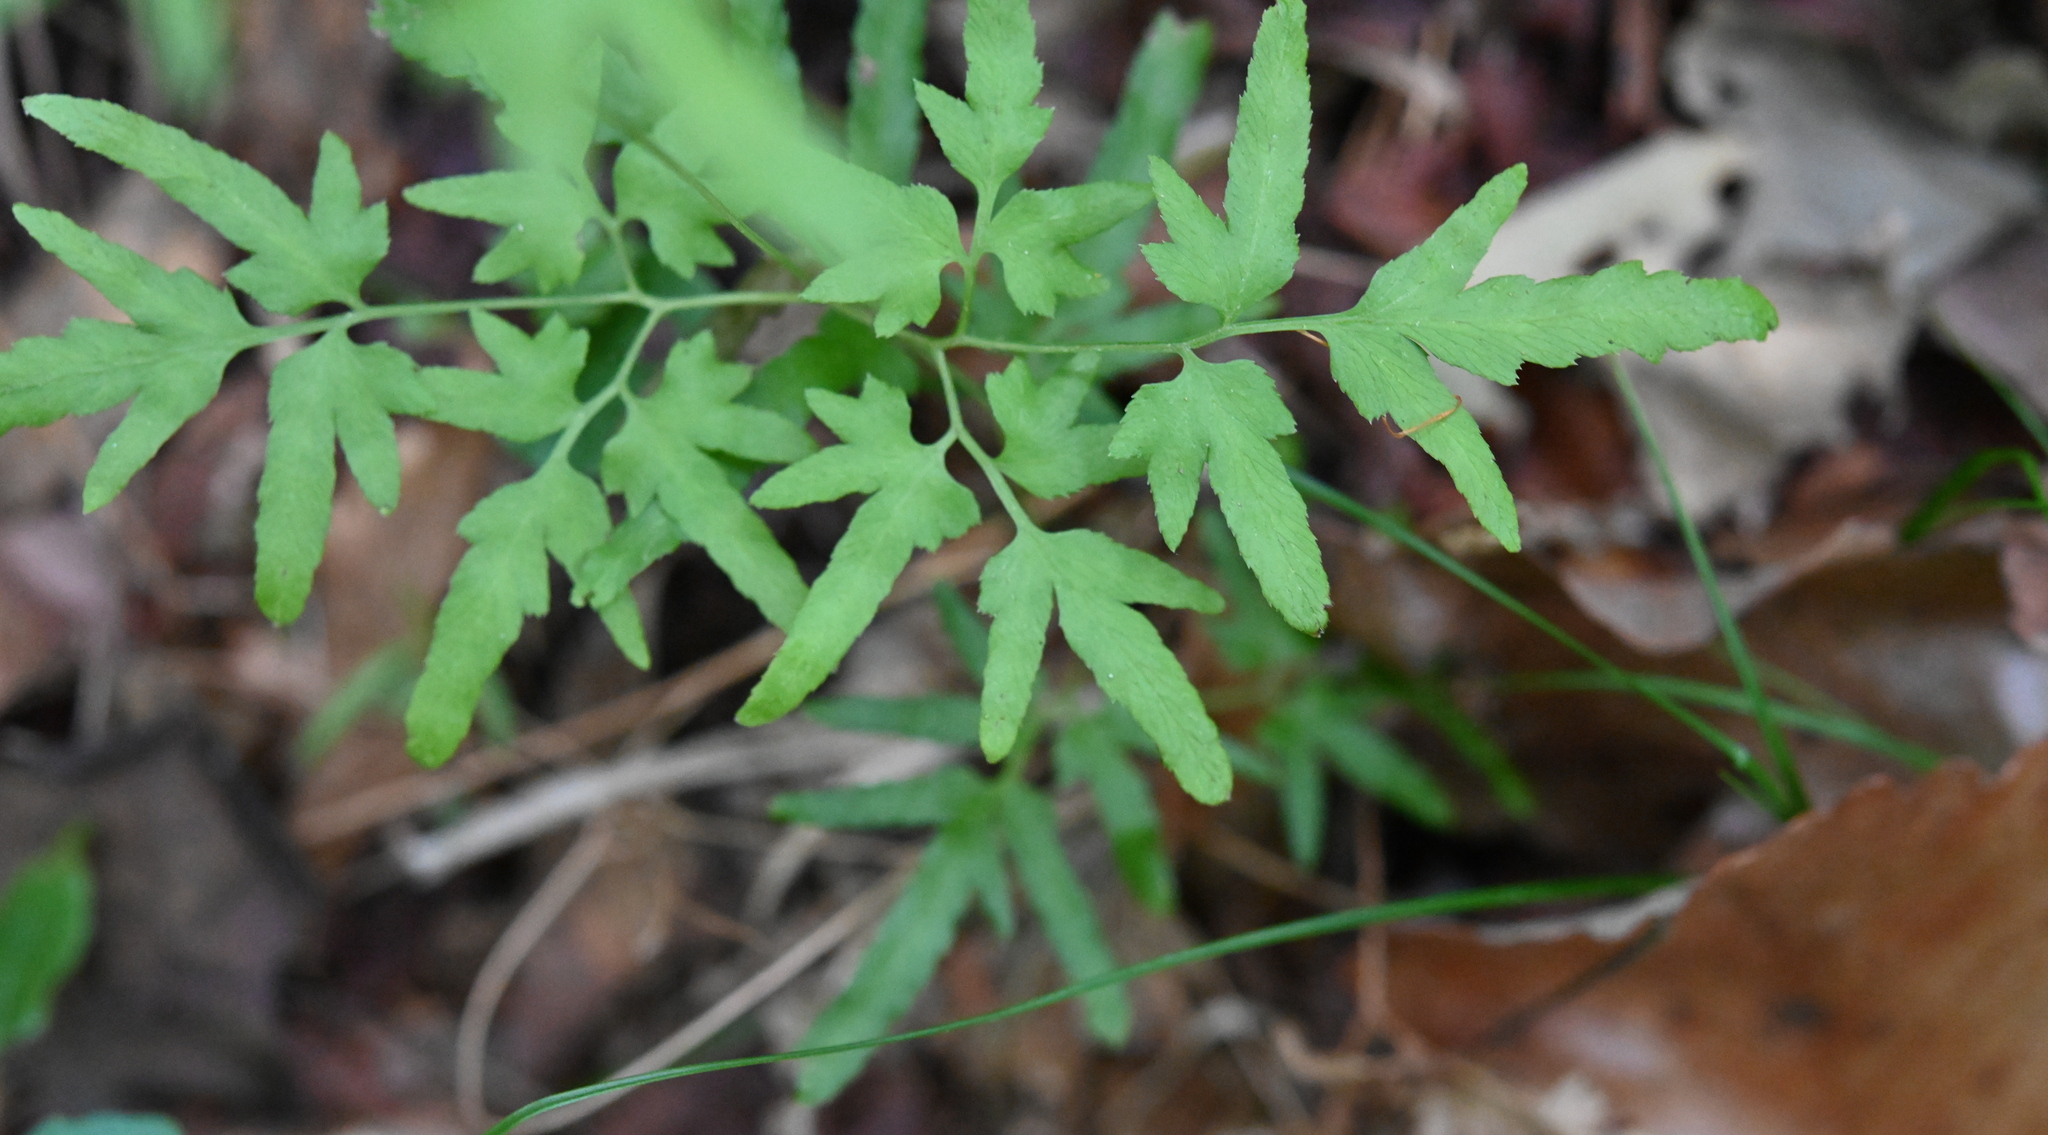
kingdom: Plantae
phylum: Tracheophyta
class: Polypodiopsida
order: Schizaeales
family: Lygodiaceae
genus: Lygodium
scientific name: Lygodium japonicum
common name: Japanese climbing fern
